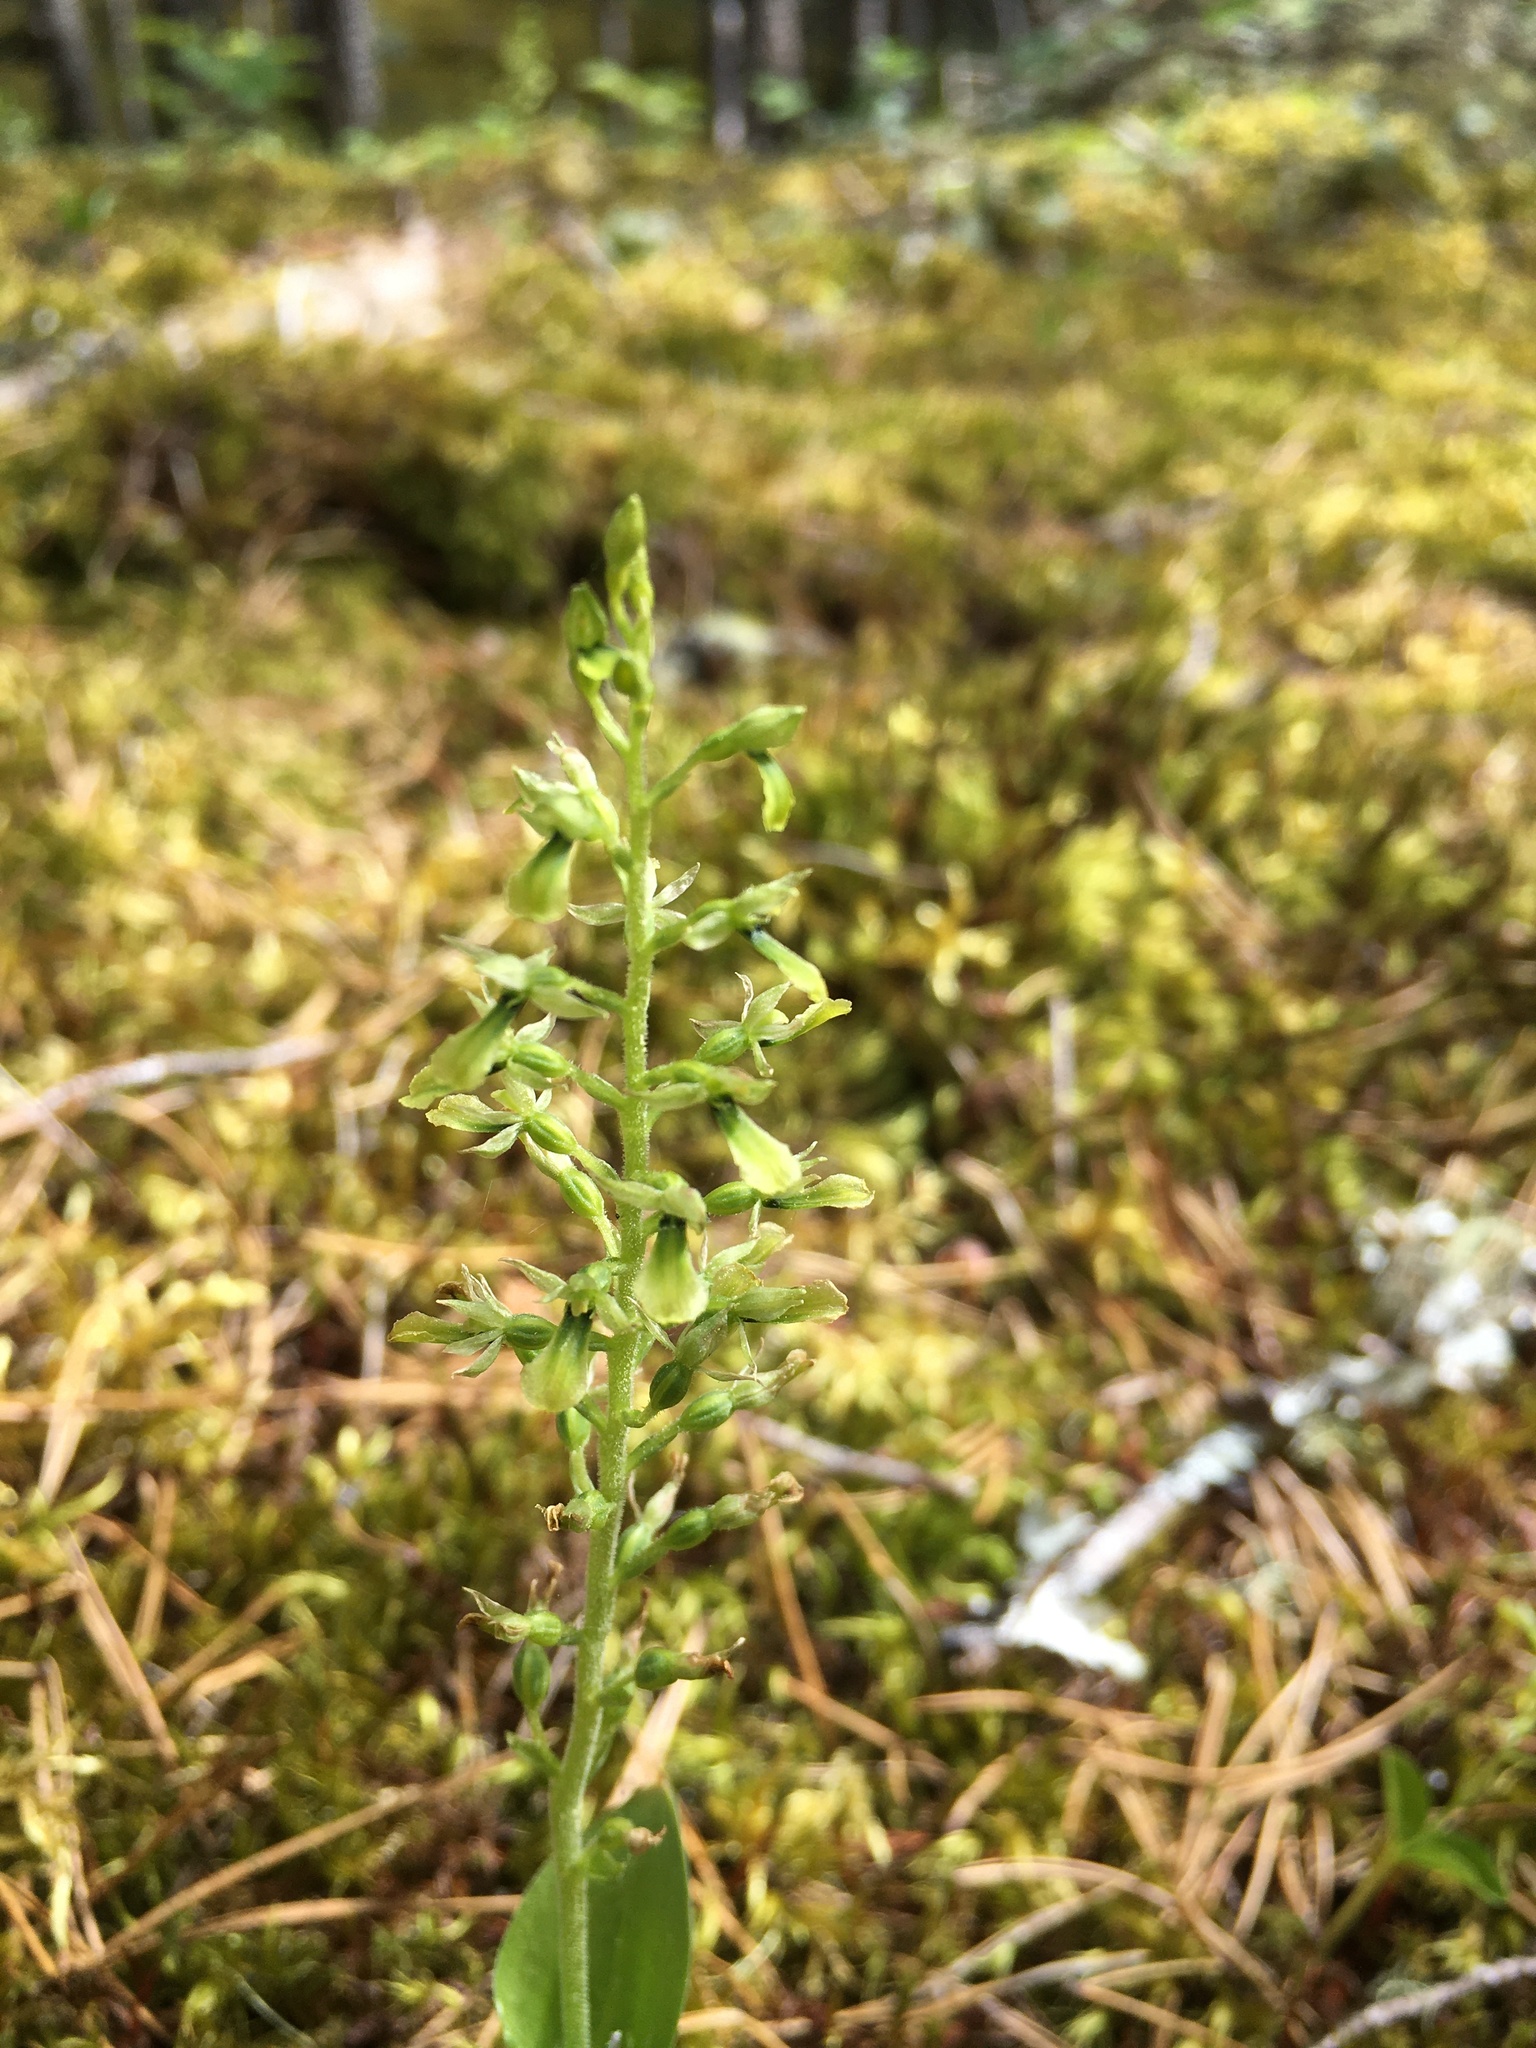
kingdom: Plantae
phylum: Tracheophyta
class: Liliopsida
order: Asparagales
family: Orchidaceae
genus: Neottia
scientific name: Neottia banksiana
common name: Northwestern twayblade
